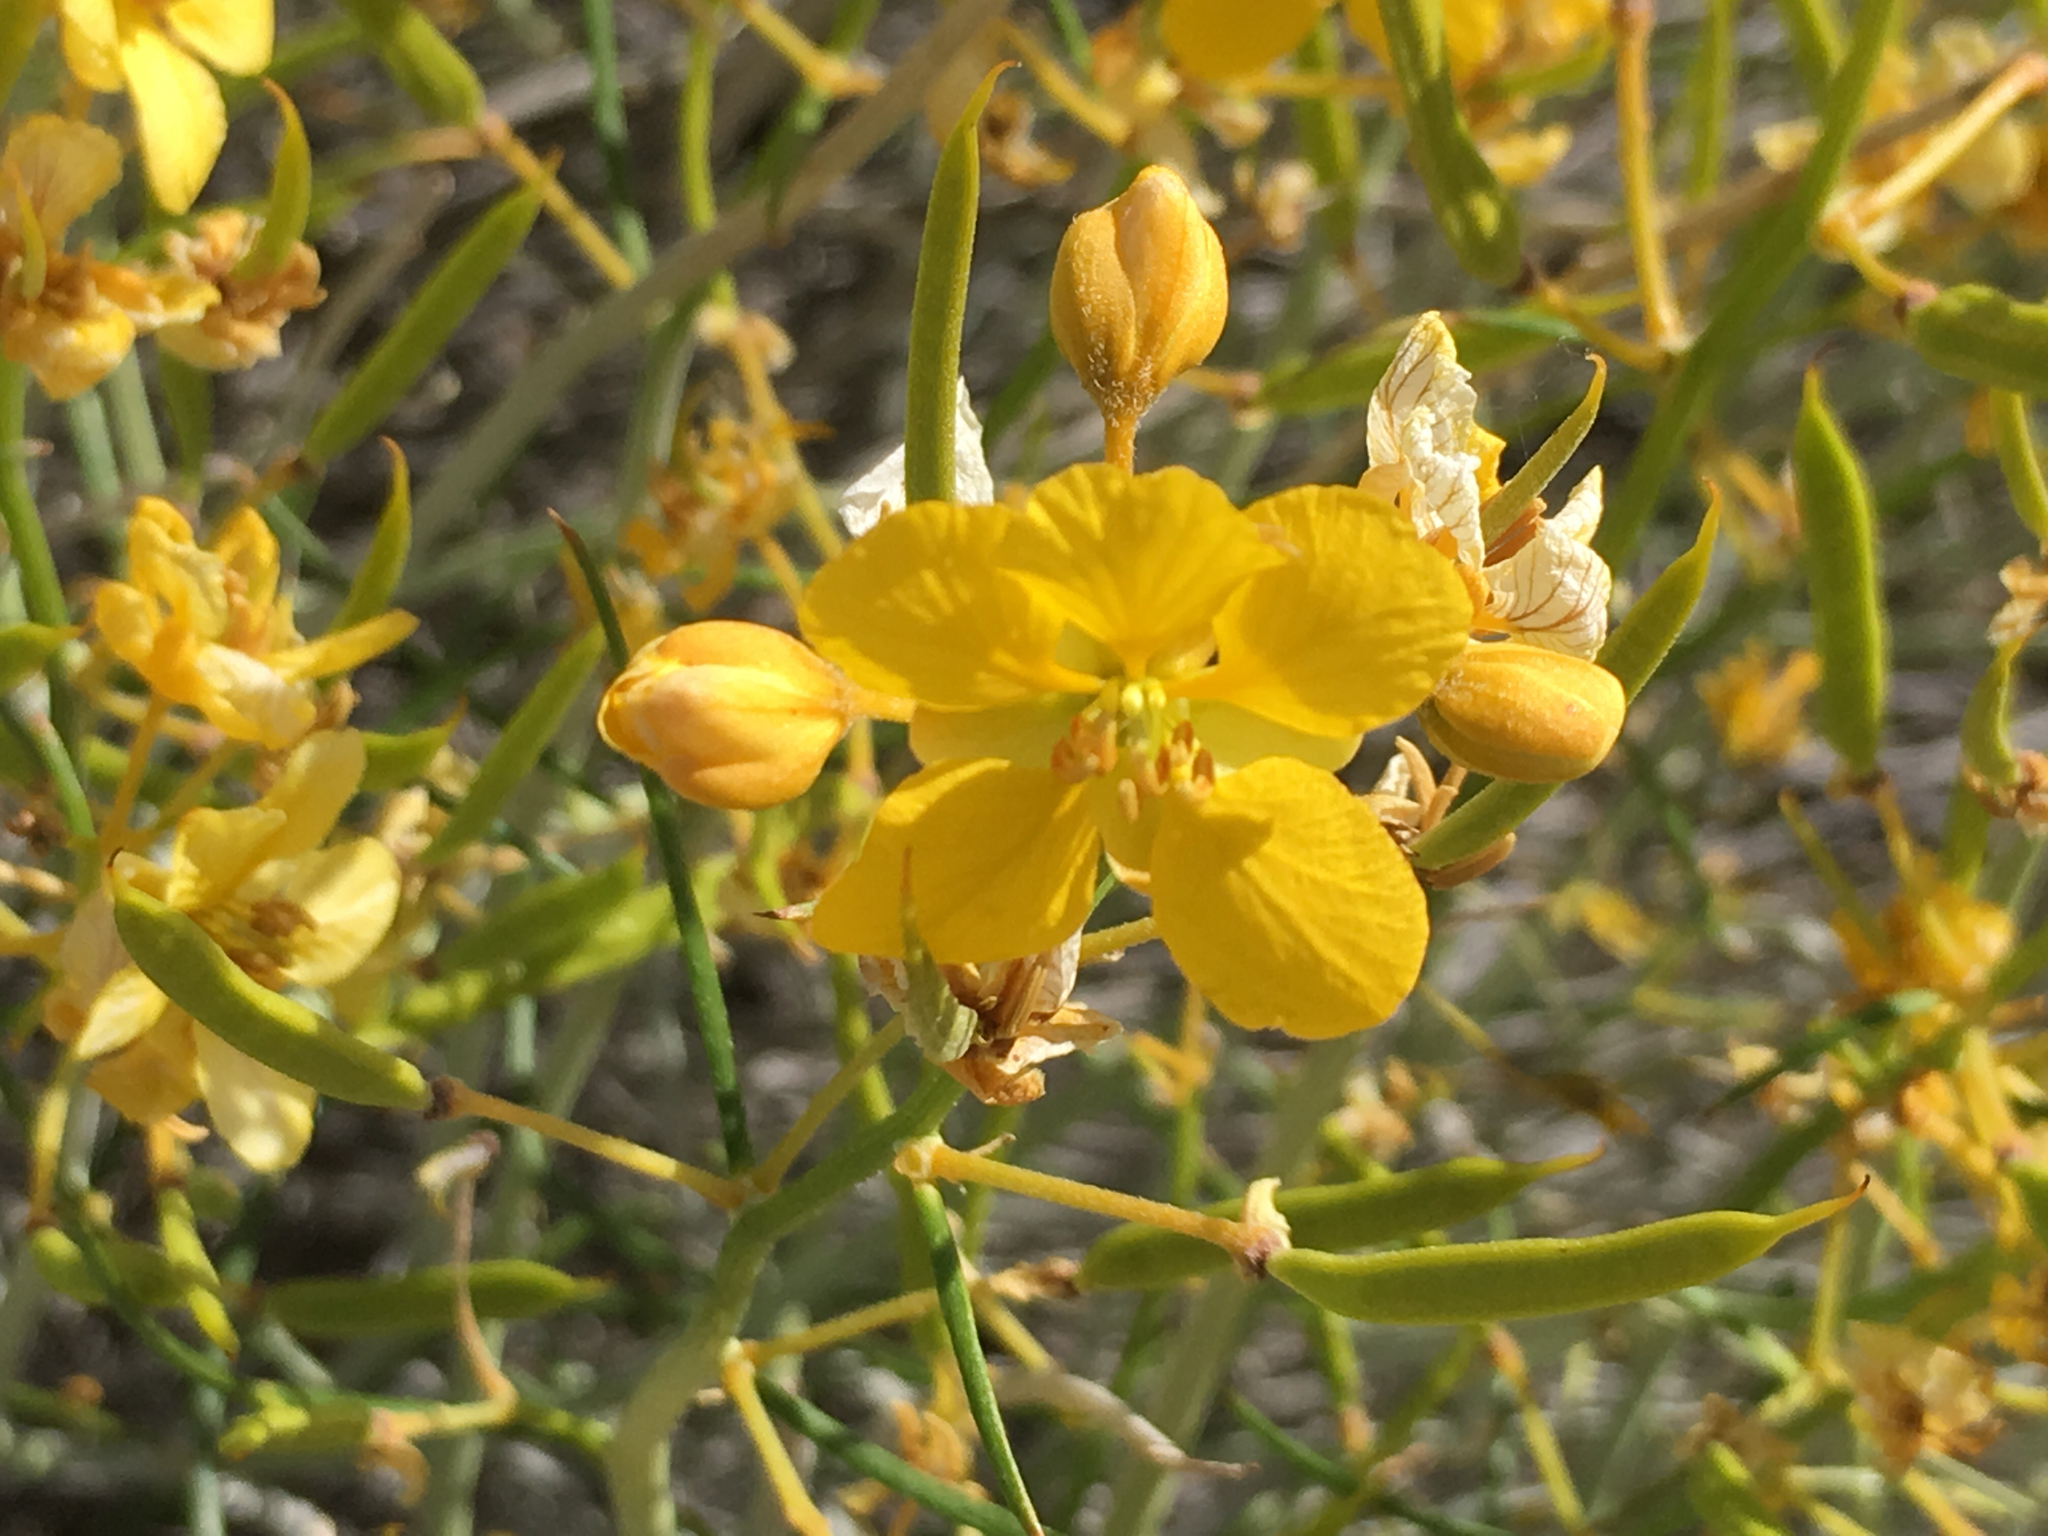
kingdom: Plantae
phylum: Tracheophyta
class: Magnoliopsida
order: Fabales
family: Fabaceae
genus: Senna
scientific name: Senna armata
